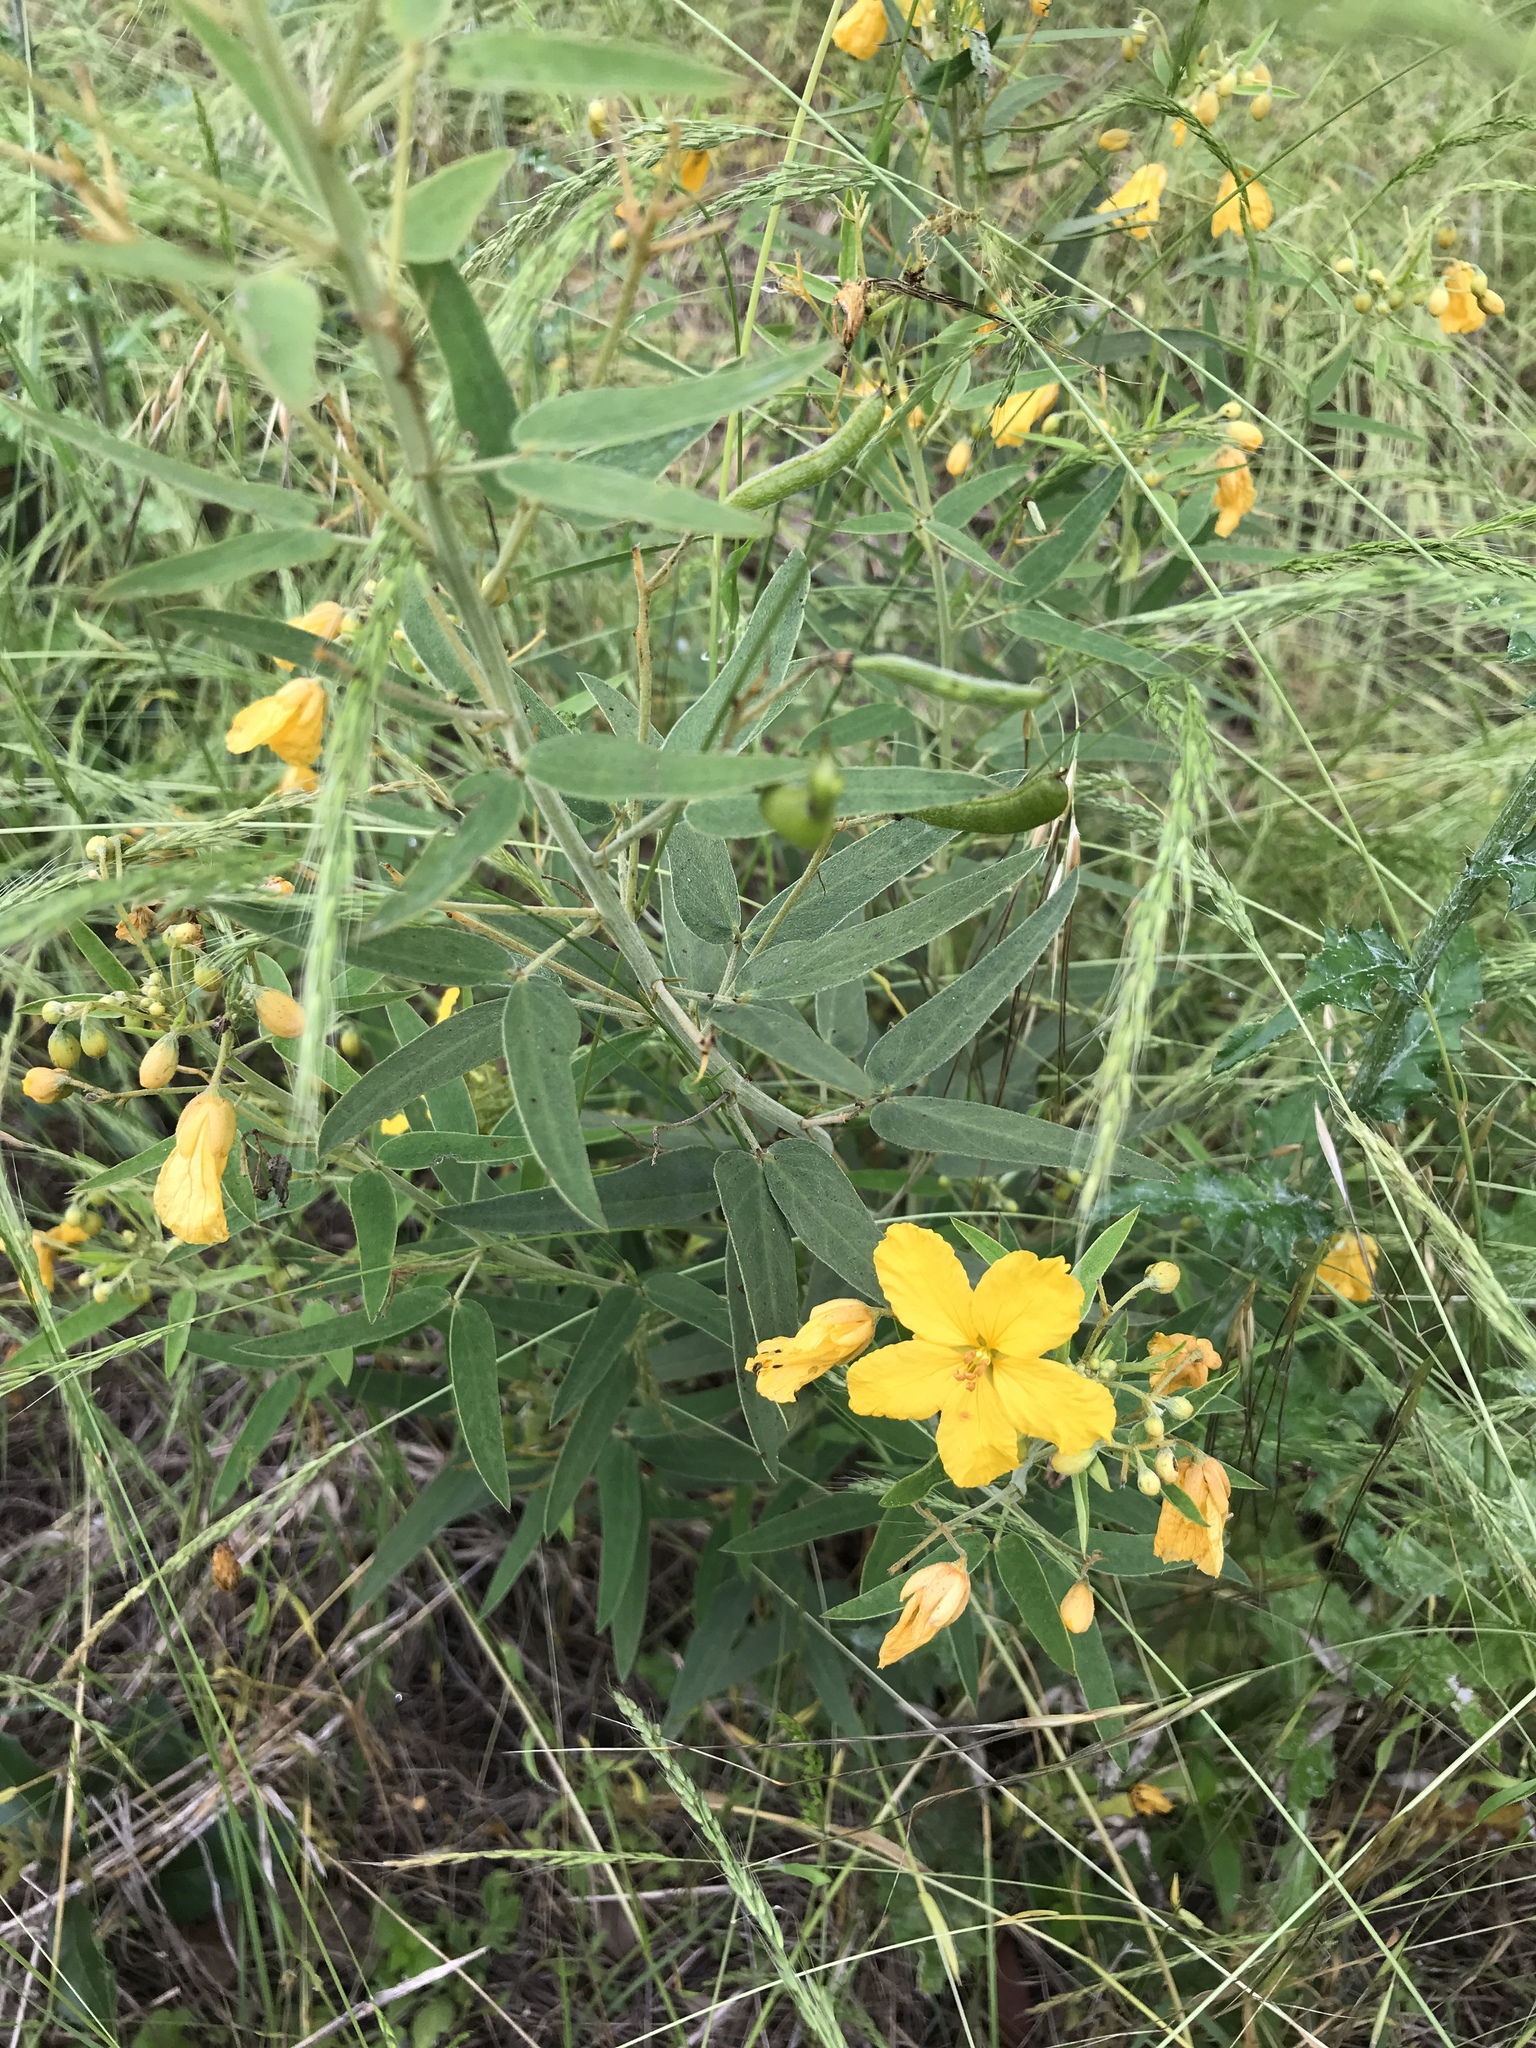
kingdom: Plantae
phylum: Tracheophyta
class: Magnoliopsida
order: Fabales
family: Fabaceae
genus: Senna
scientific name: Senna roemeriana
